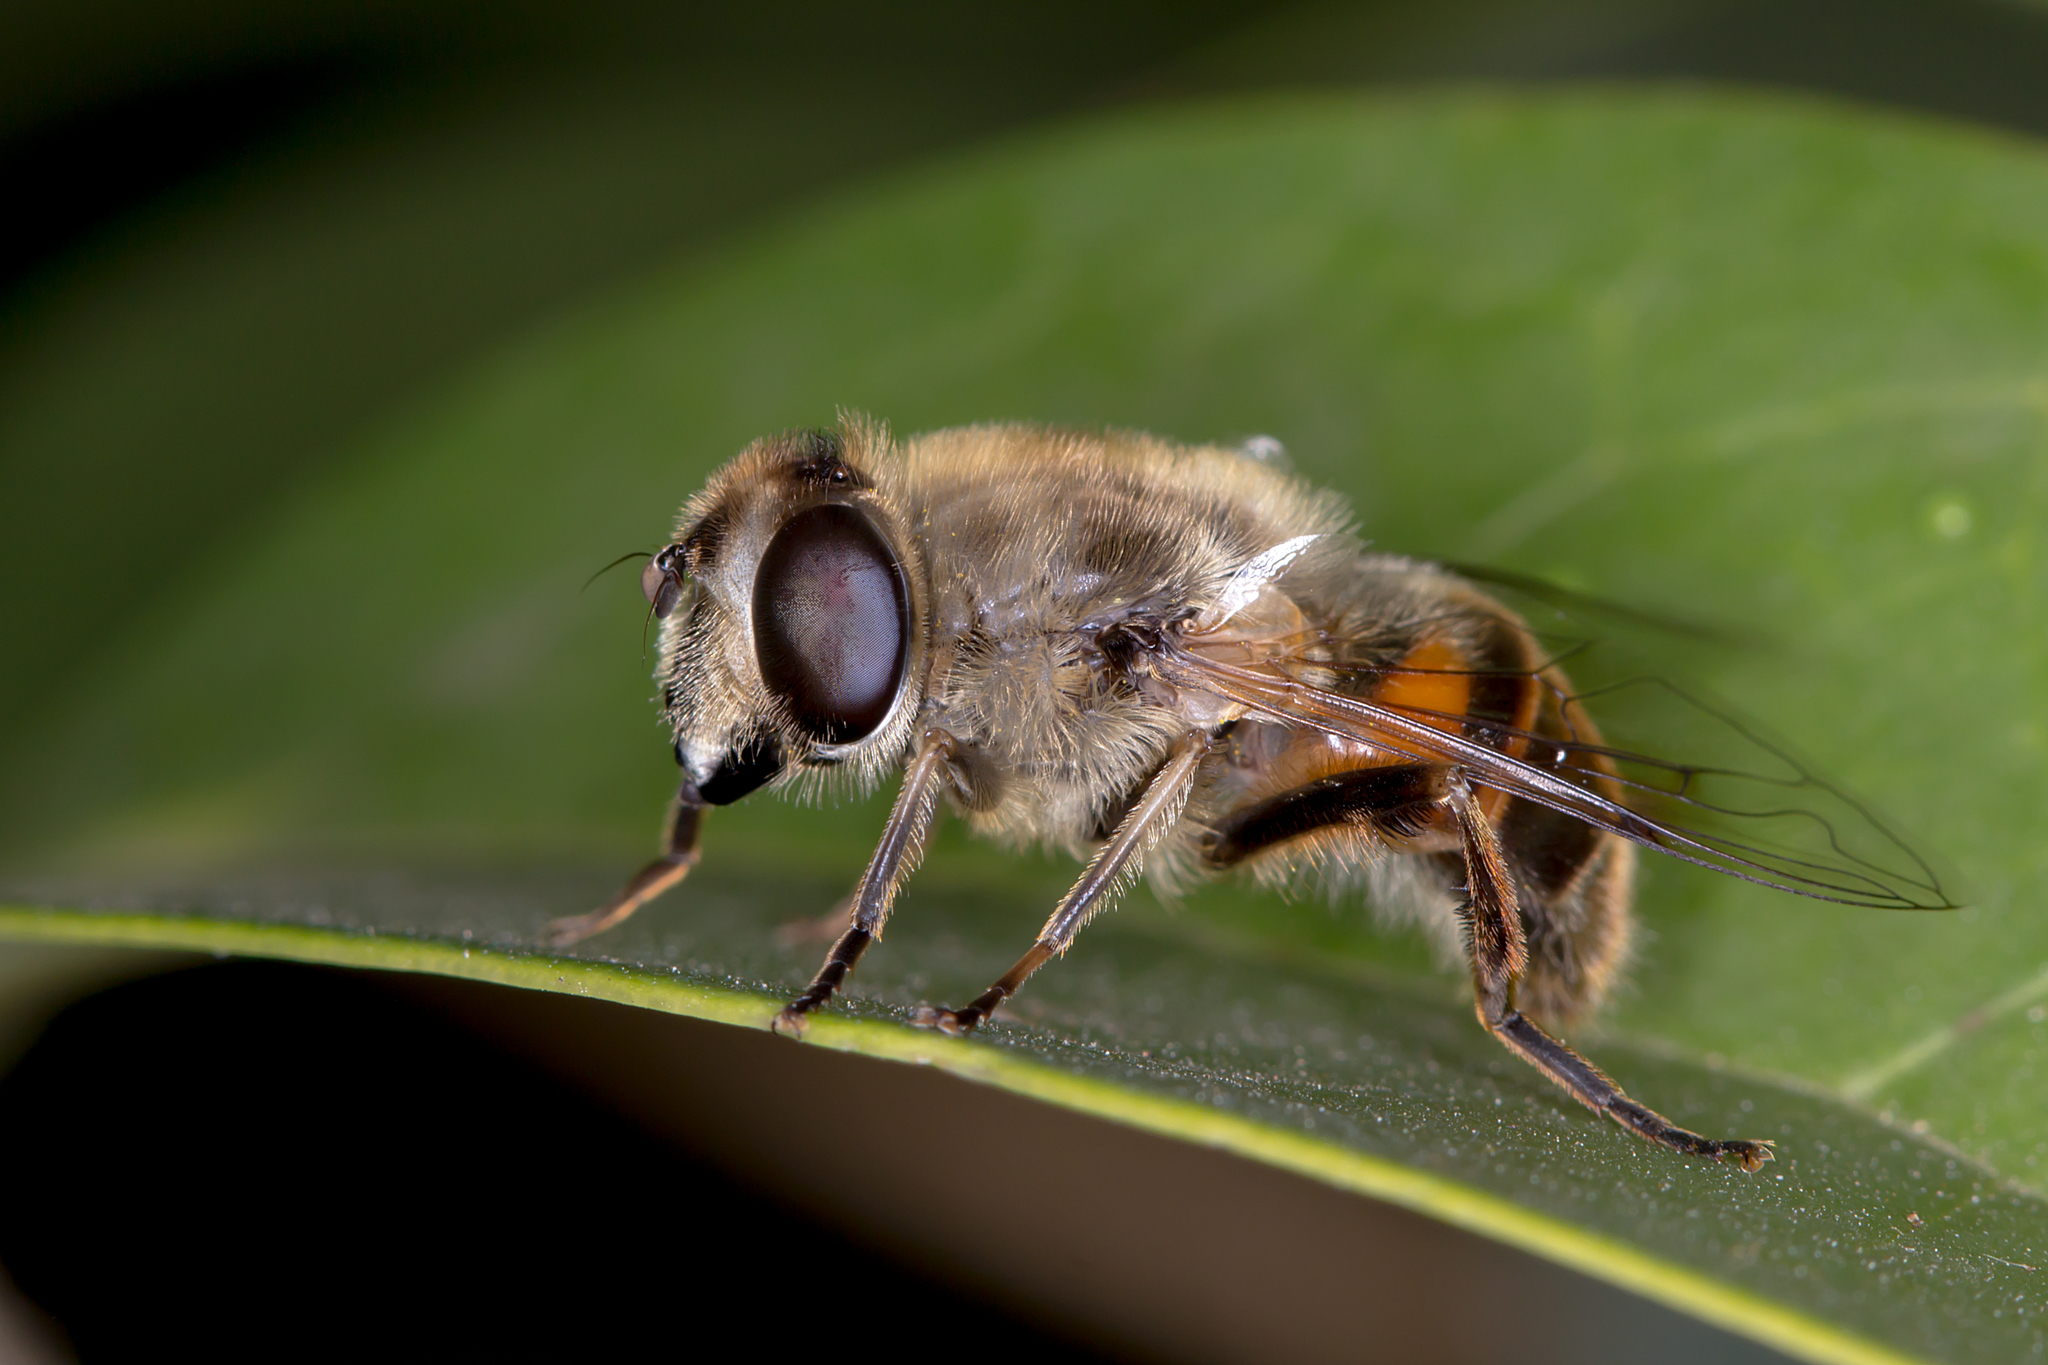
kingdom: Animalia
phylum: Arthropoda
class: Insecta
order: Diptera
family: Syrphidae
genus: Eristalis
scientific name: Eristalis tenax
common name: Drone fly
